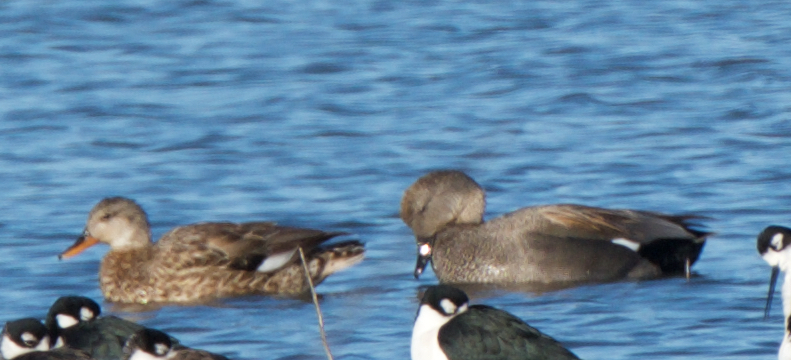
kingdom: Animalia
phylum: Chordata
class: Aves
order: Anseriformes
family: Anatidae
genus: Mareca
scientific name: Mareca strepera
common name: Gadwall
